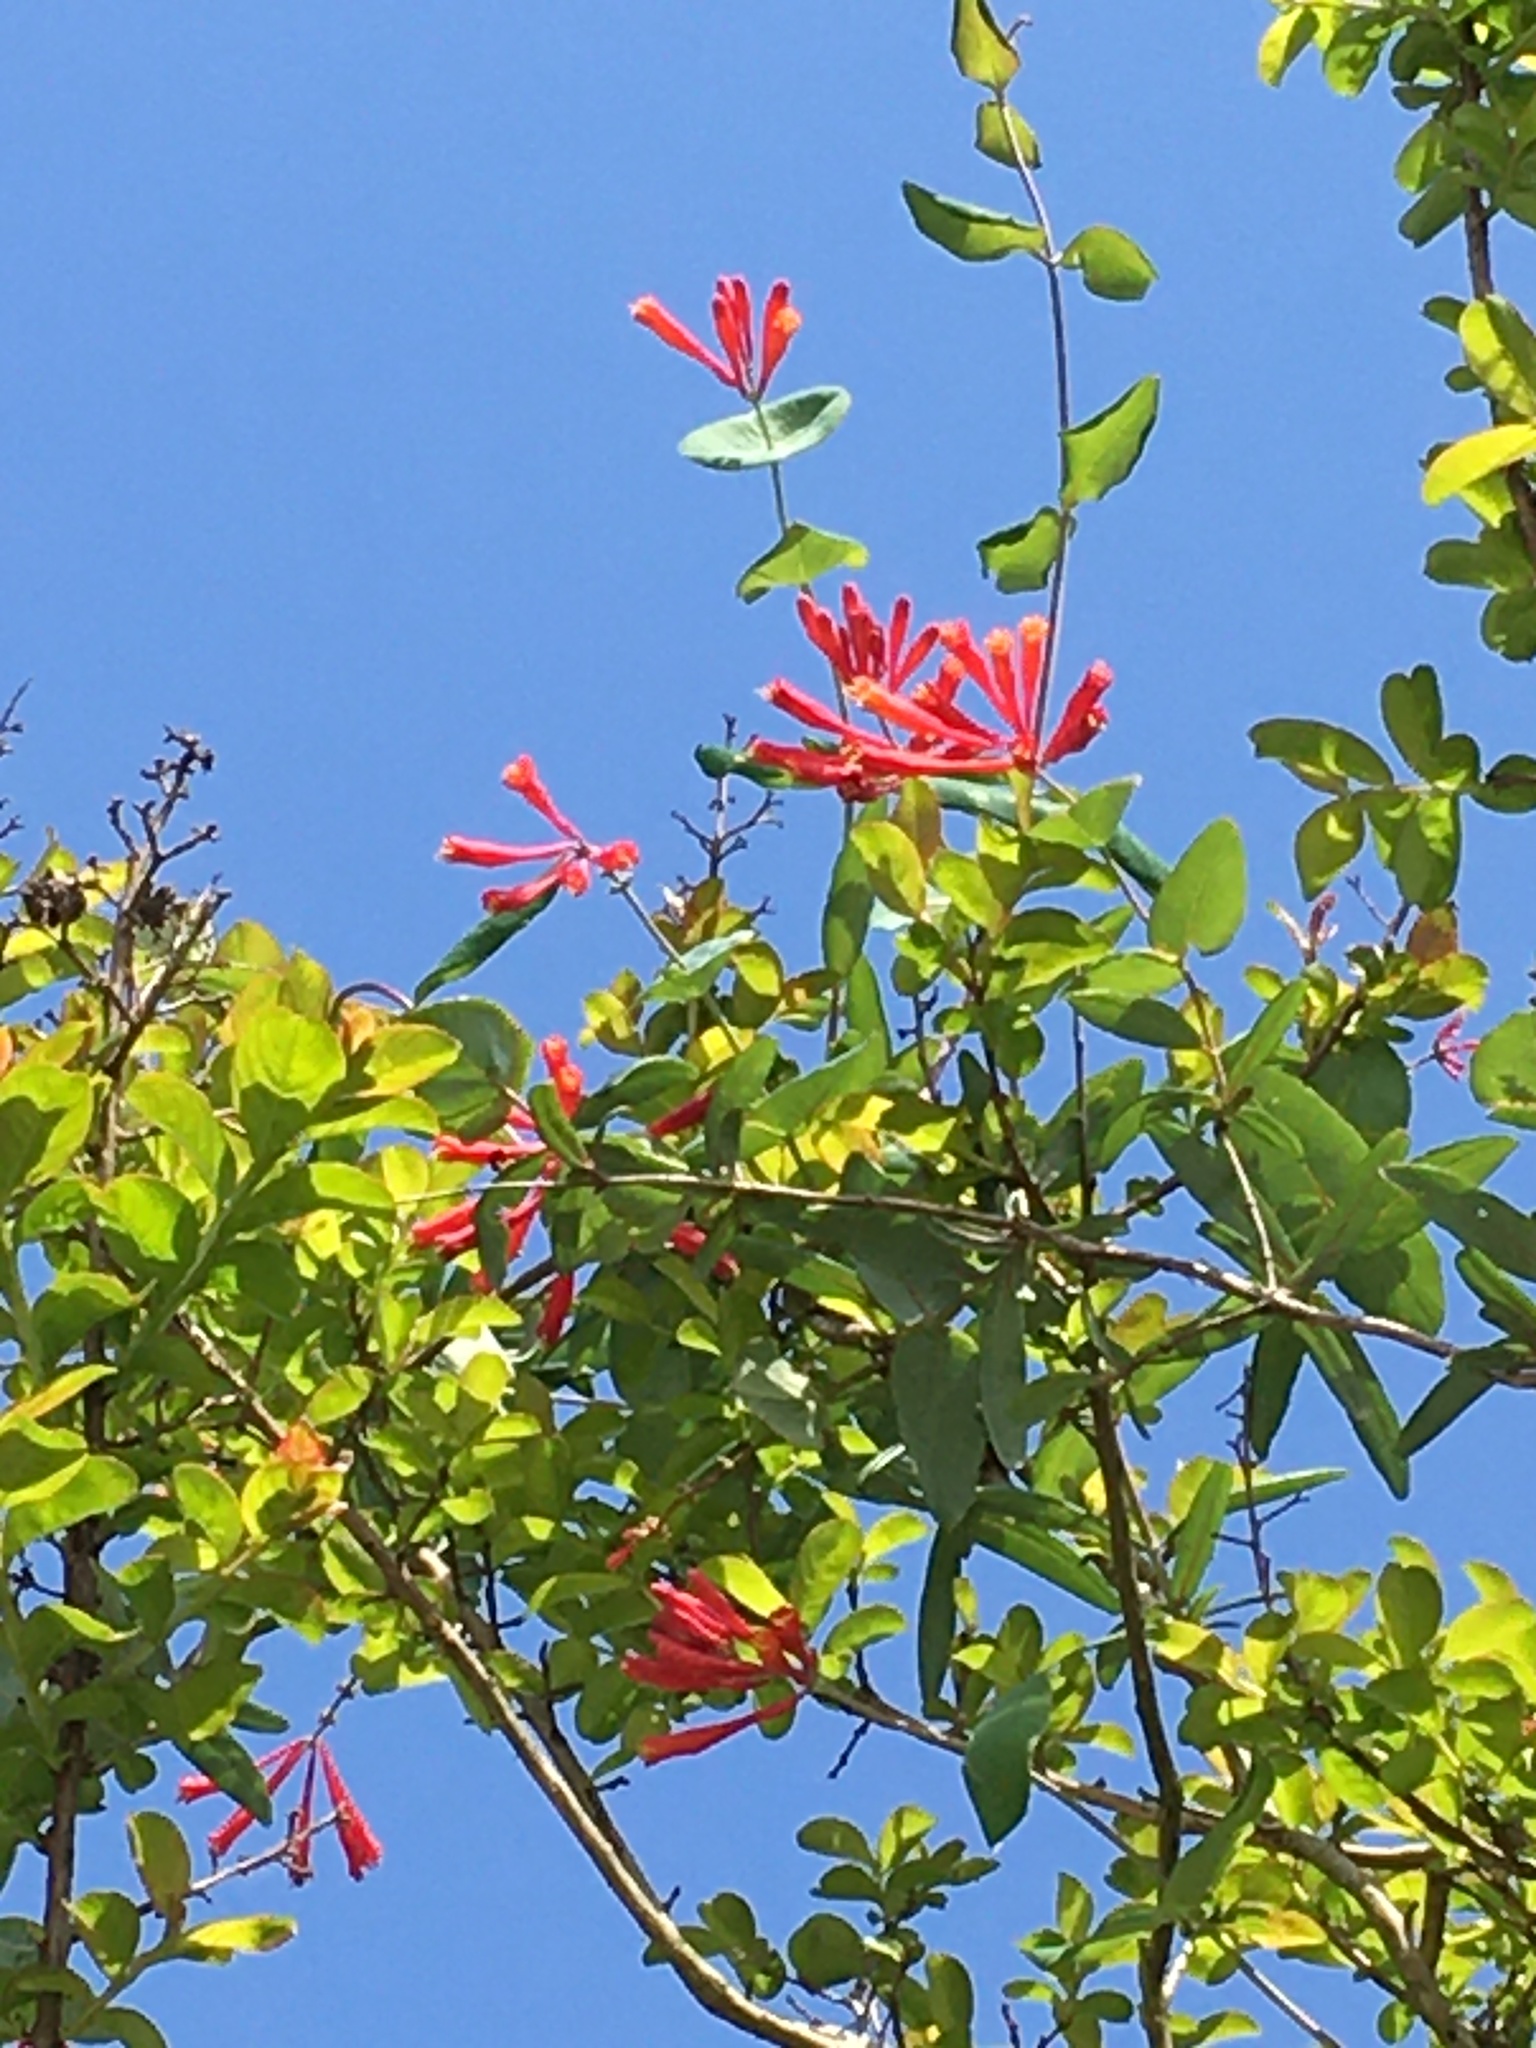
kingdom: Plantae
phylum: Tracheophyta
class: Magnoliopsida
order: Dipsacales
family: Caprifoliaceae
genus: Lonicera
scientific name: Lonicera sempervirens
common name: Coral honeysuckle
